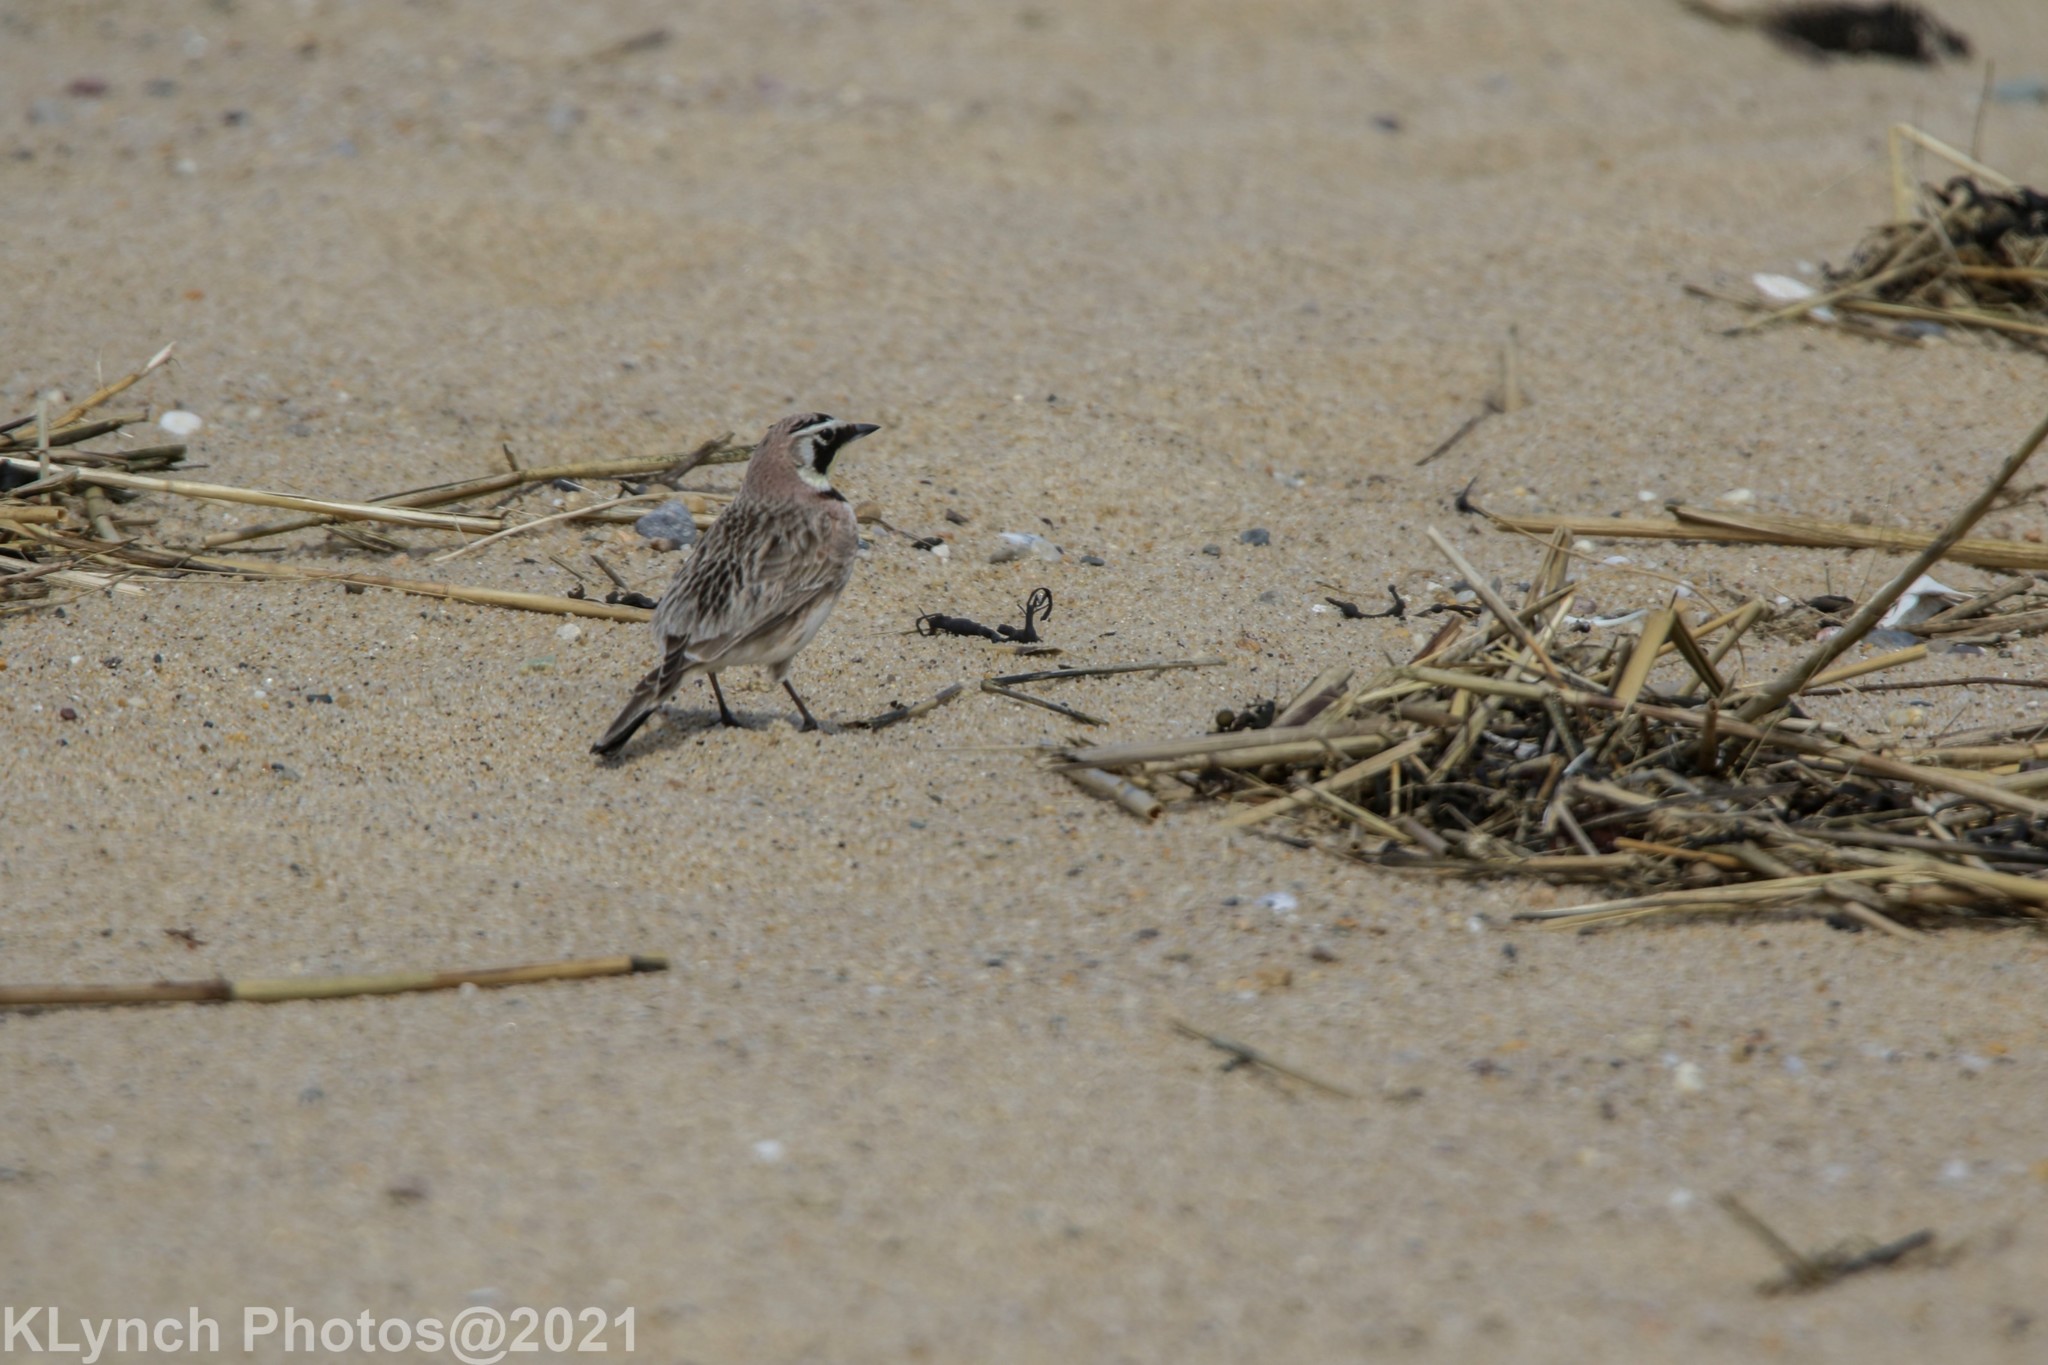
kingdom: Animalia
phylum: Chordata
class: Aves
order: Passeriformes
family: Alaudidae
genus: Eremophila
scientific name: Eremophila alpestris
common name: Horned lark
